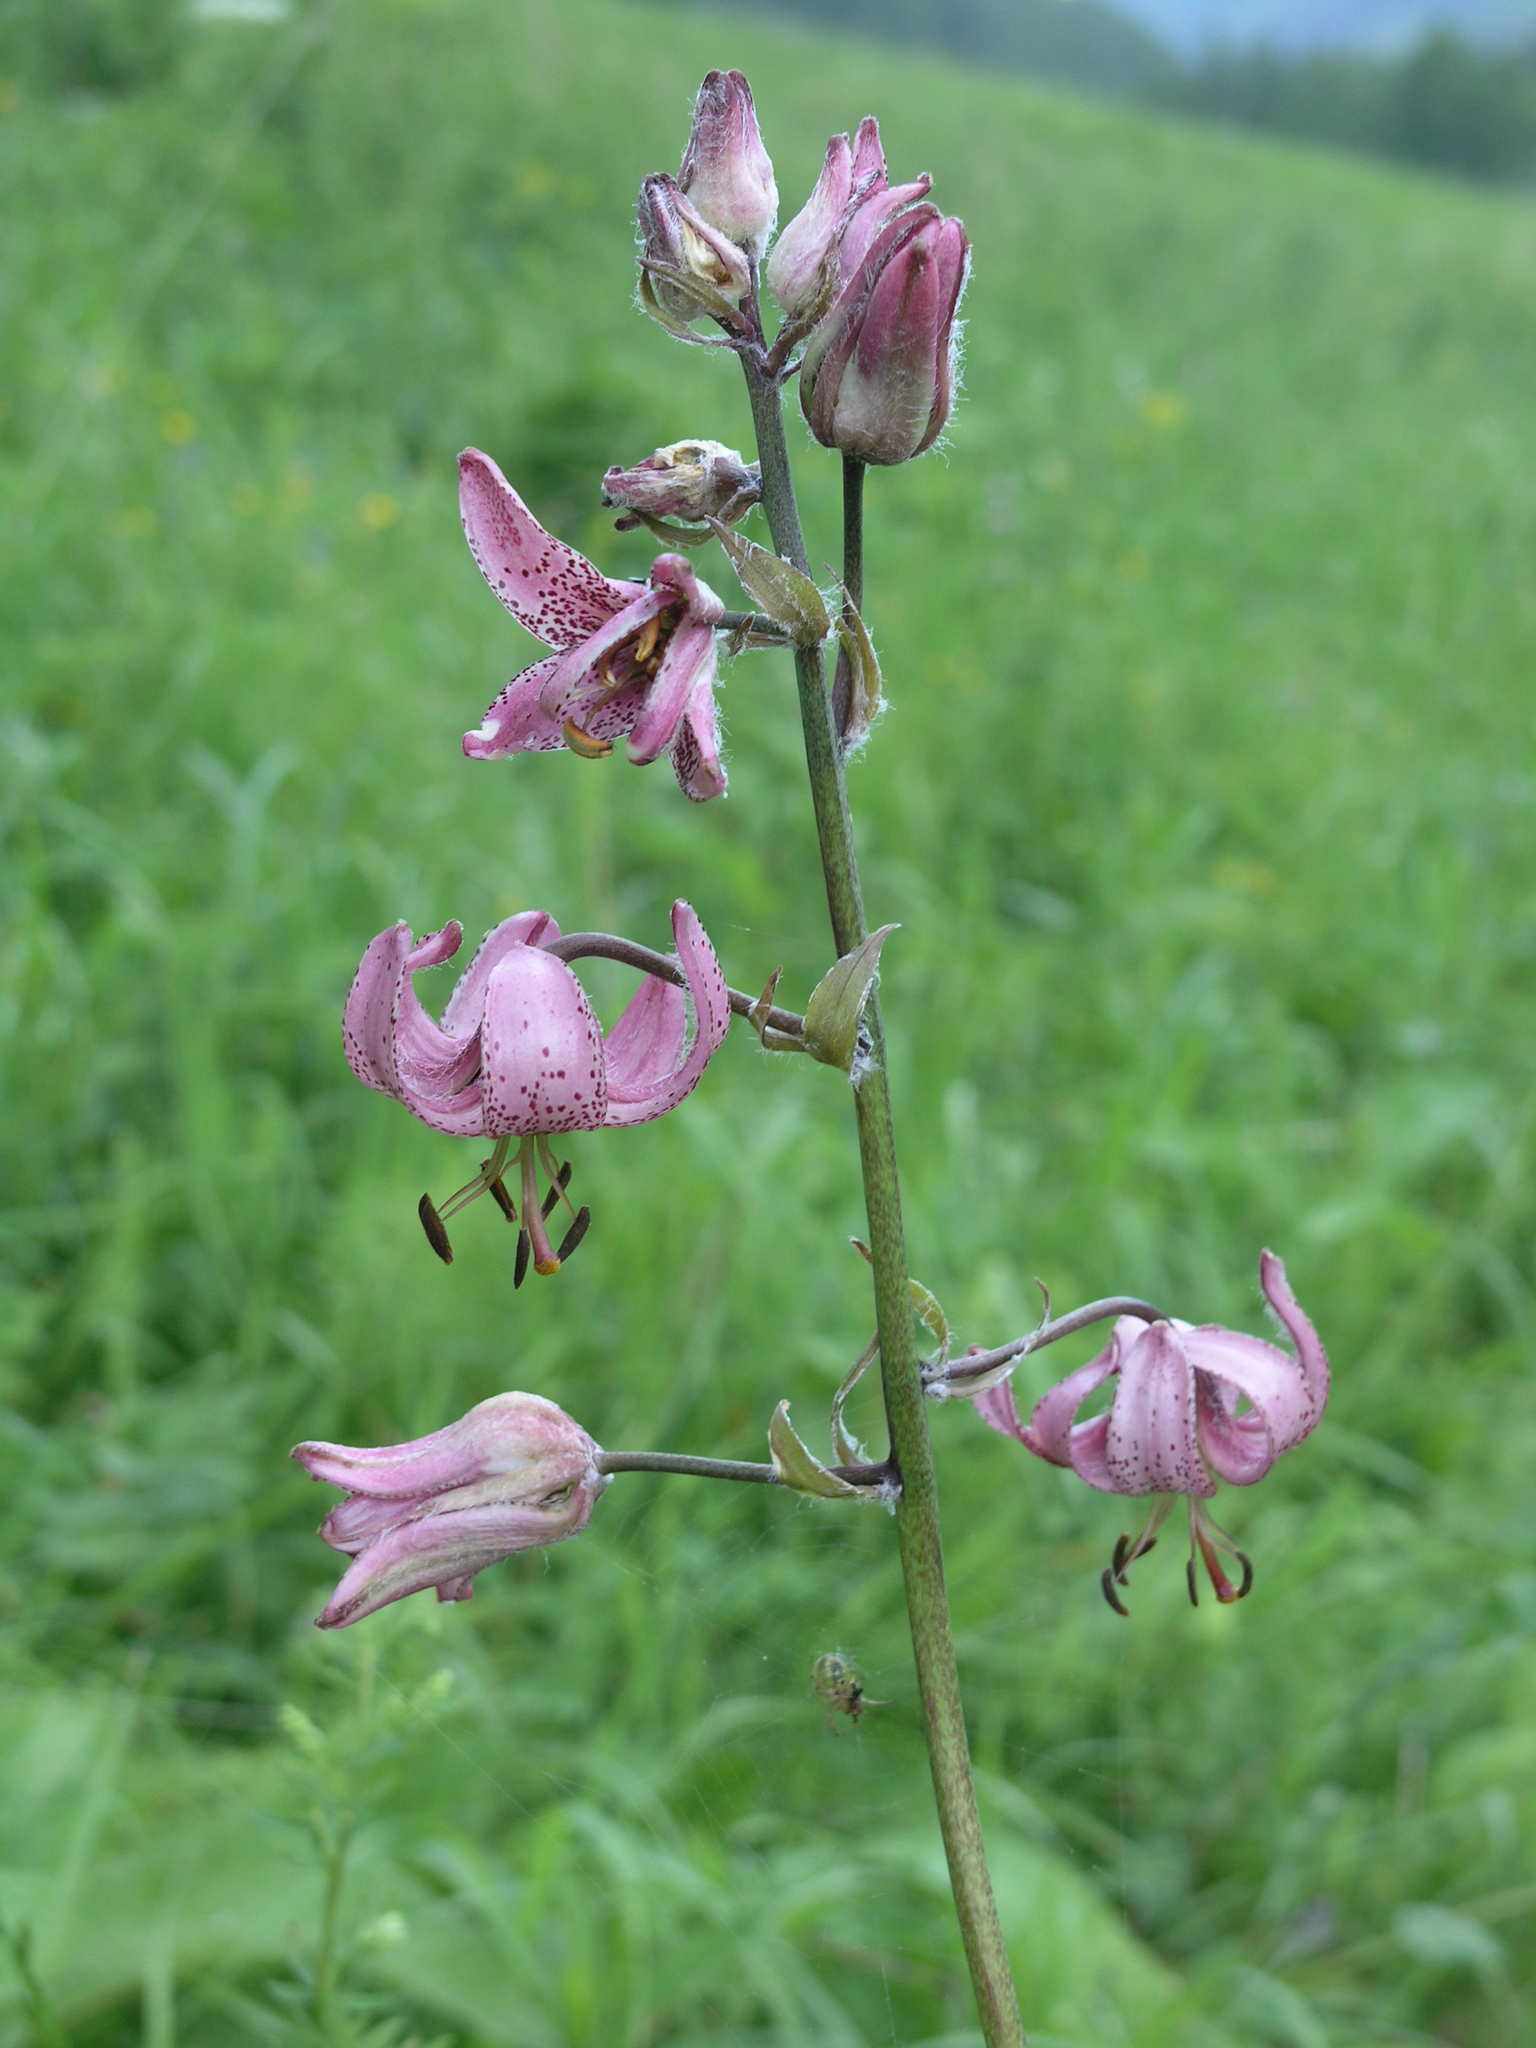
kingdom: Plantae
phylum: Tracheophyta
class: Liliopsida
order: Liliales
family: Liliaceae
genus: Lilium
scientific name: Lilium martagon
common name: Martagon lily
